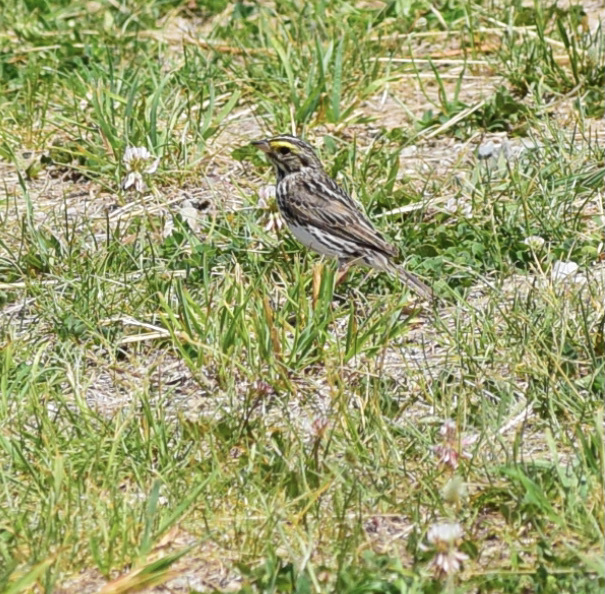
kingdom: Animalia
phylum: Chordata
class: Aves
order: Passeriformes
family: Passerellidae
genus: Passerculus
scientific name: Passerculus sandwichensis
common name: Savannah sparrow
